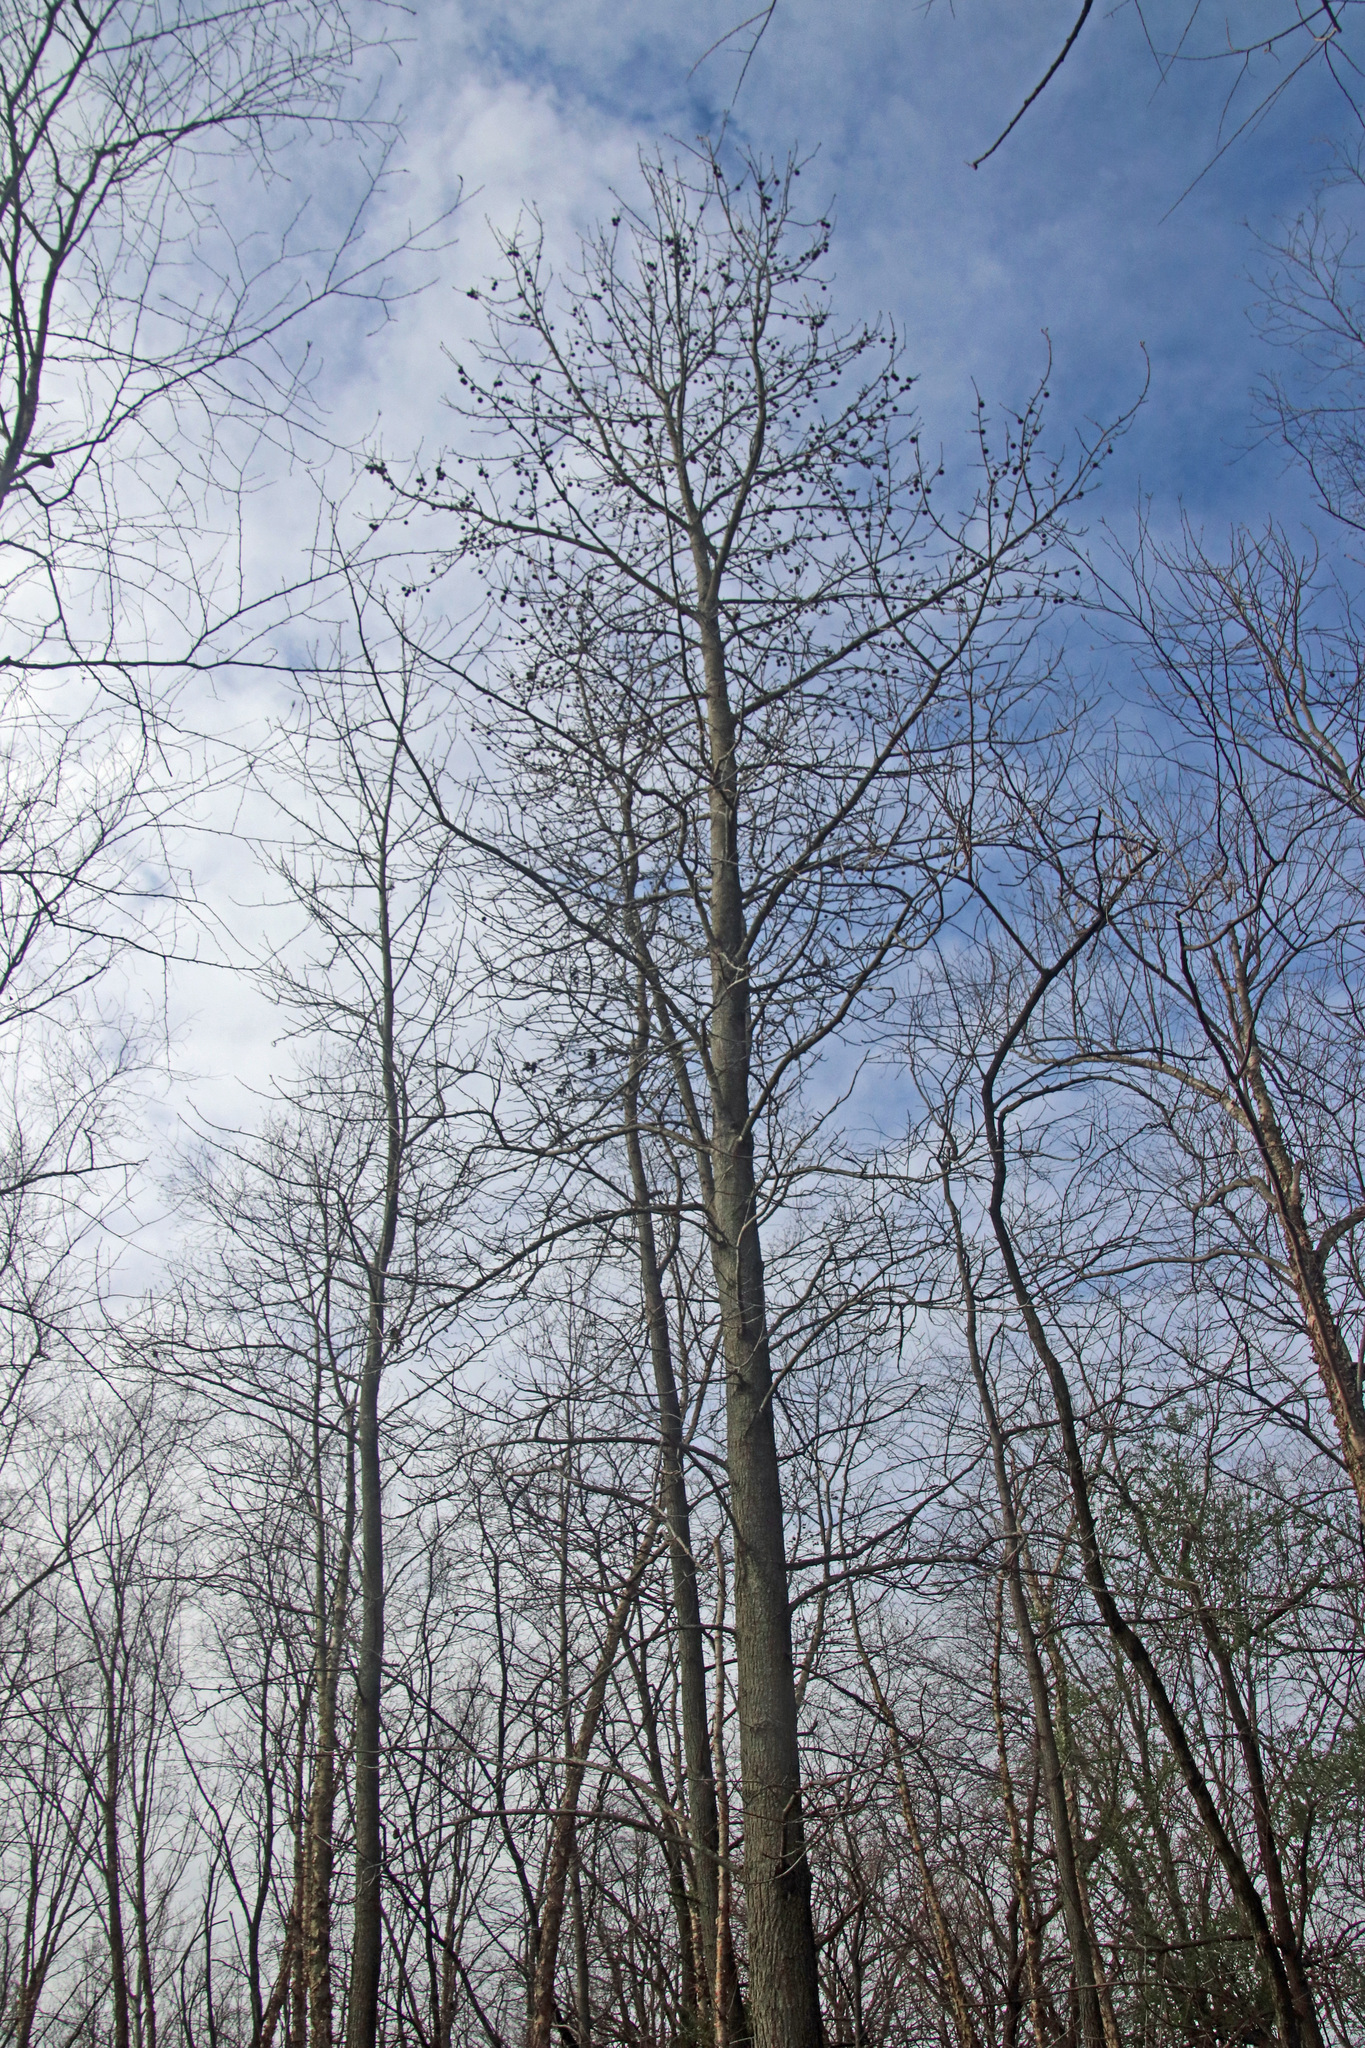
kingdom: Plantae
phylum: Tracheophyta
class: Magnoliopsida
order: Saxifragales
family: Altingiaceae
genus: Liquidambar
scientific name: Liquidambar styraciflua
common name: Sweet gum
